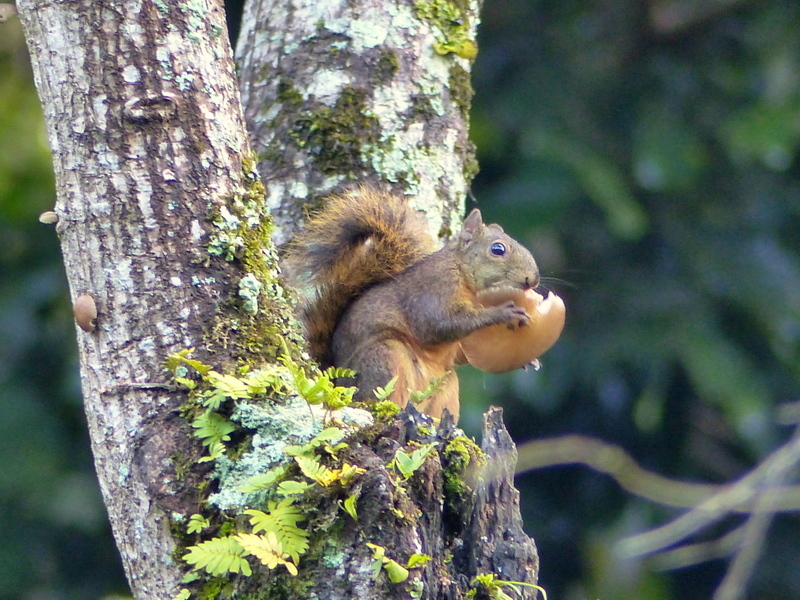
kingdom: Animalia
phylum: Chordata
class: Mammalia
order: Rodentia
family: Sciuridae
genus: Sciurus
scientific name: Sciurus granatensis
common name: Red-tailed squirrel
